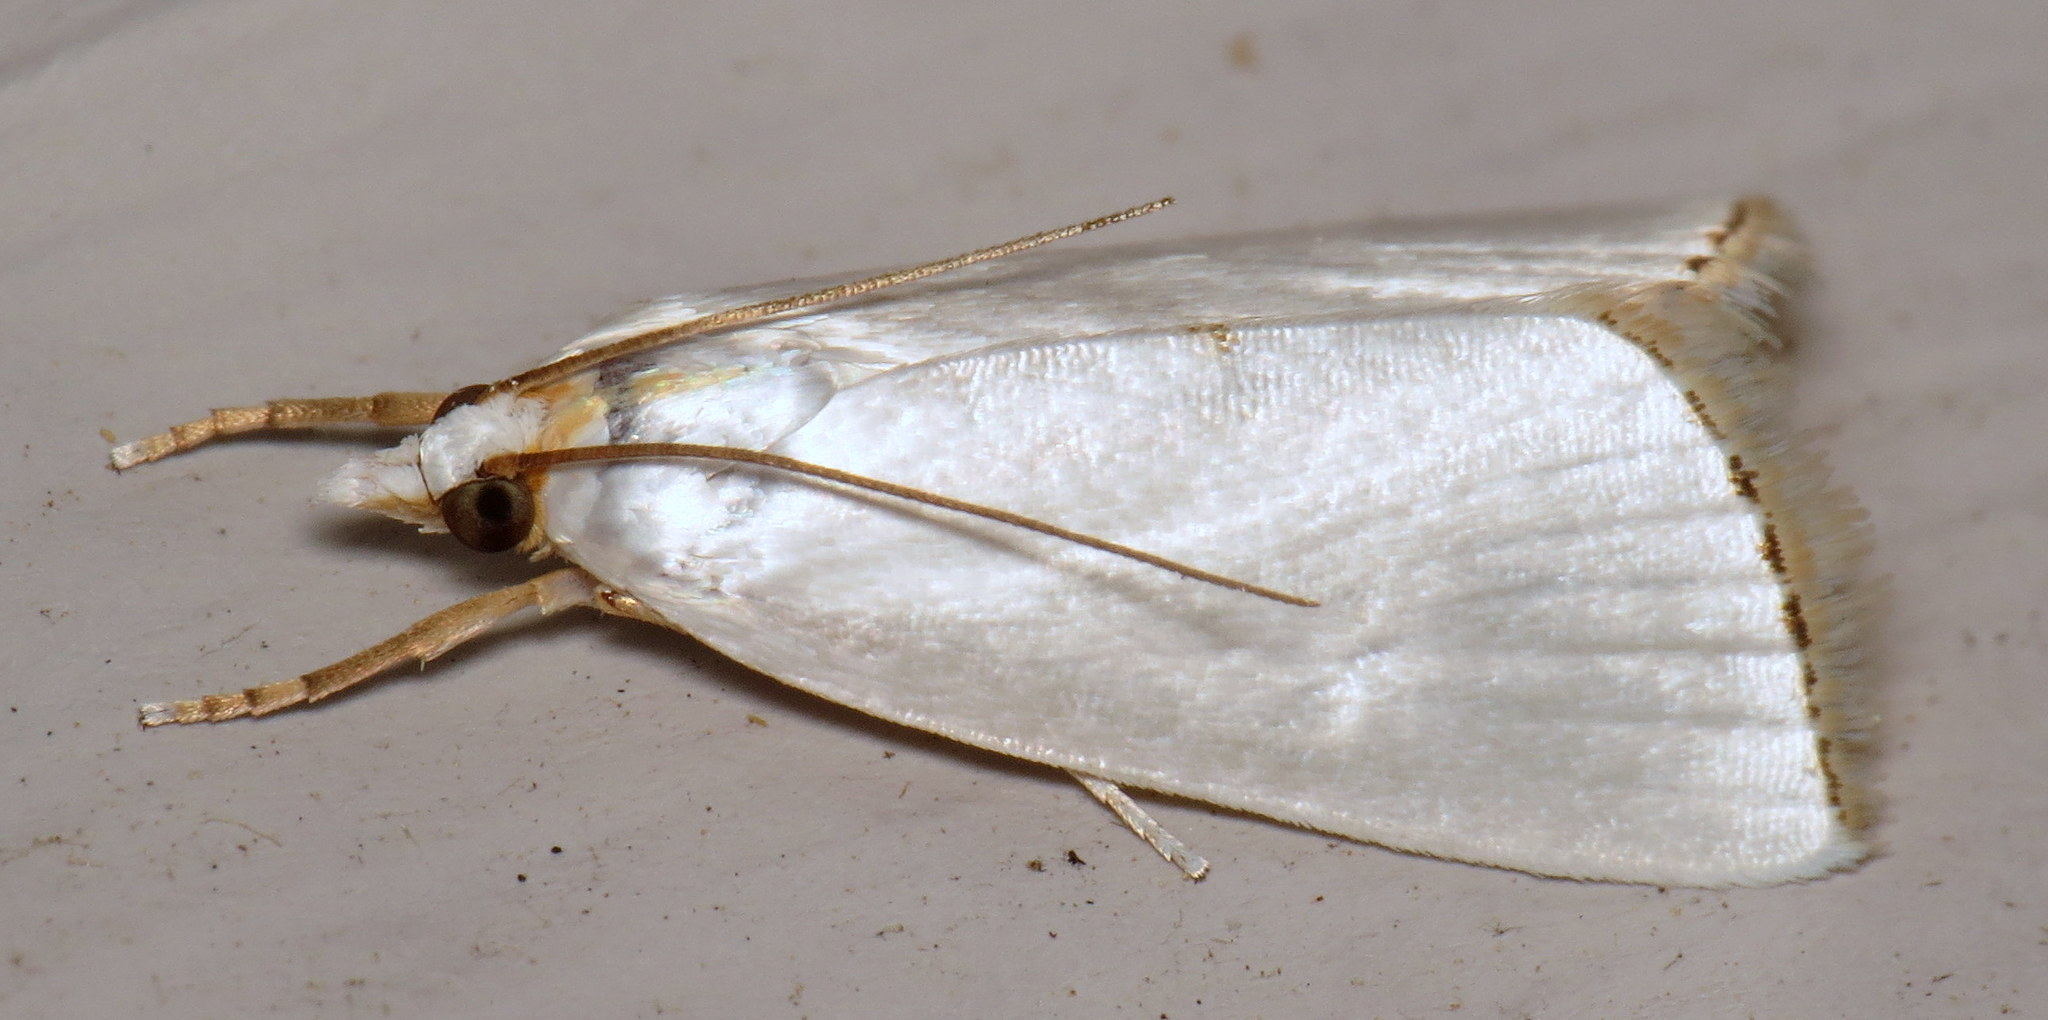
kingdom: Animalia
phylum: Arthropoda
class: Insecta
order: Lepidoptera
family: Crambidae
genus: Argyria
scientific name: Argyria nivalis
